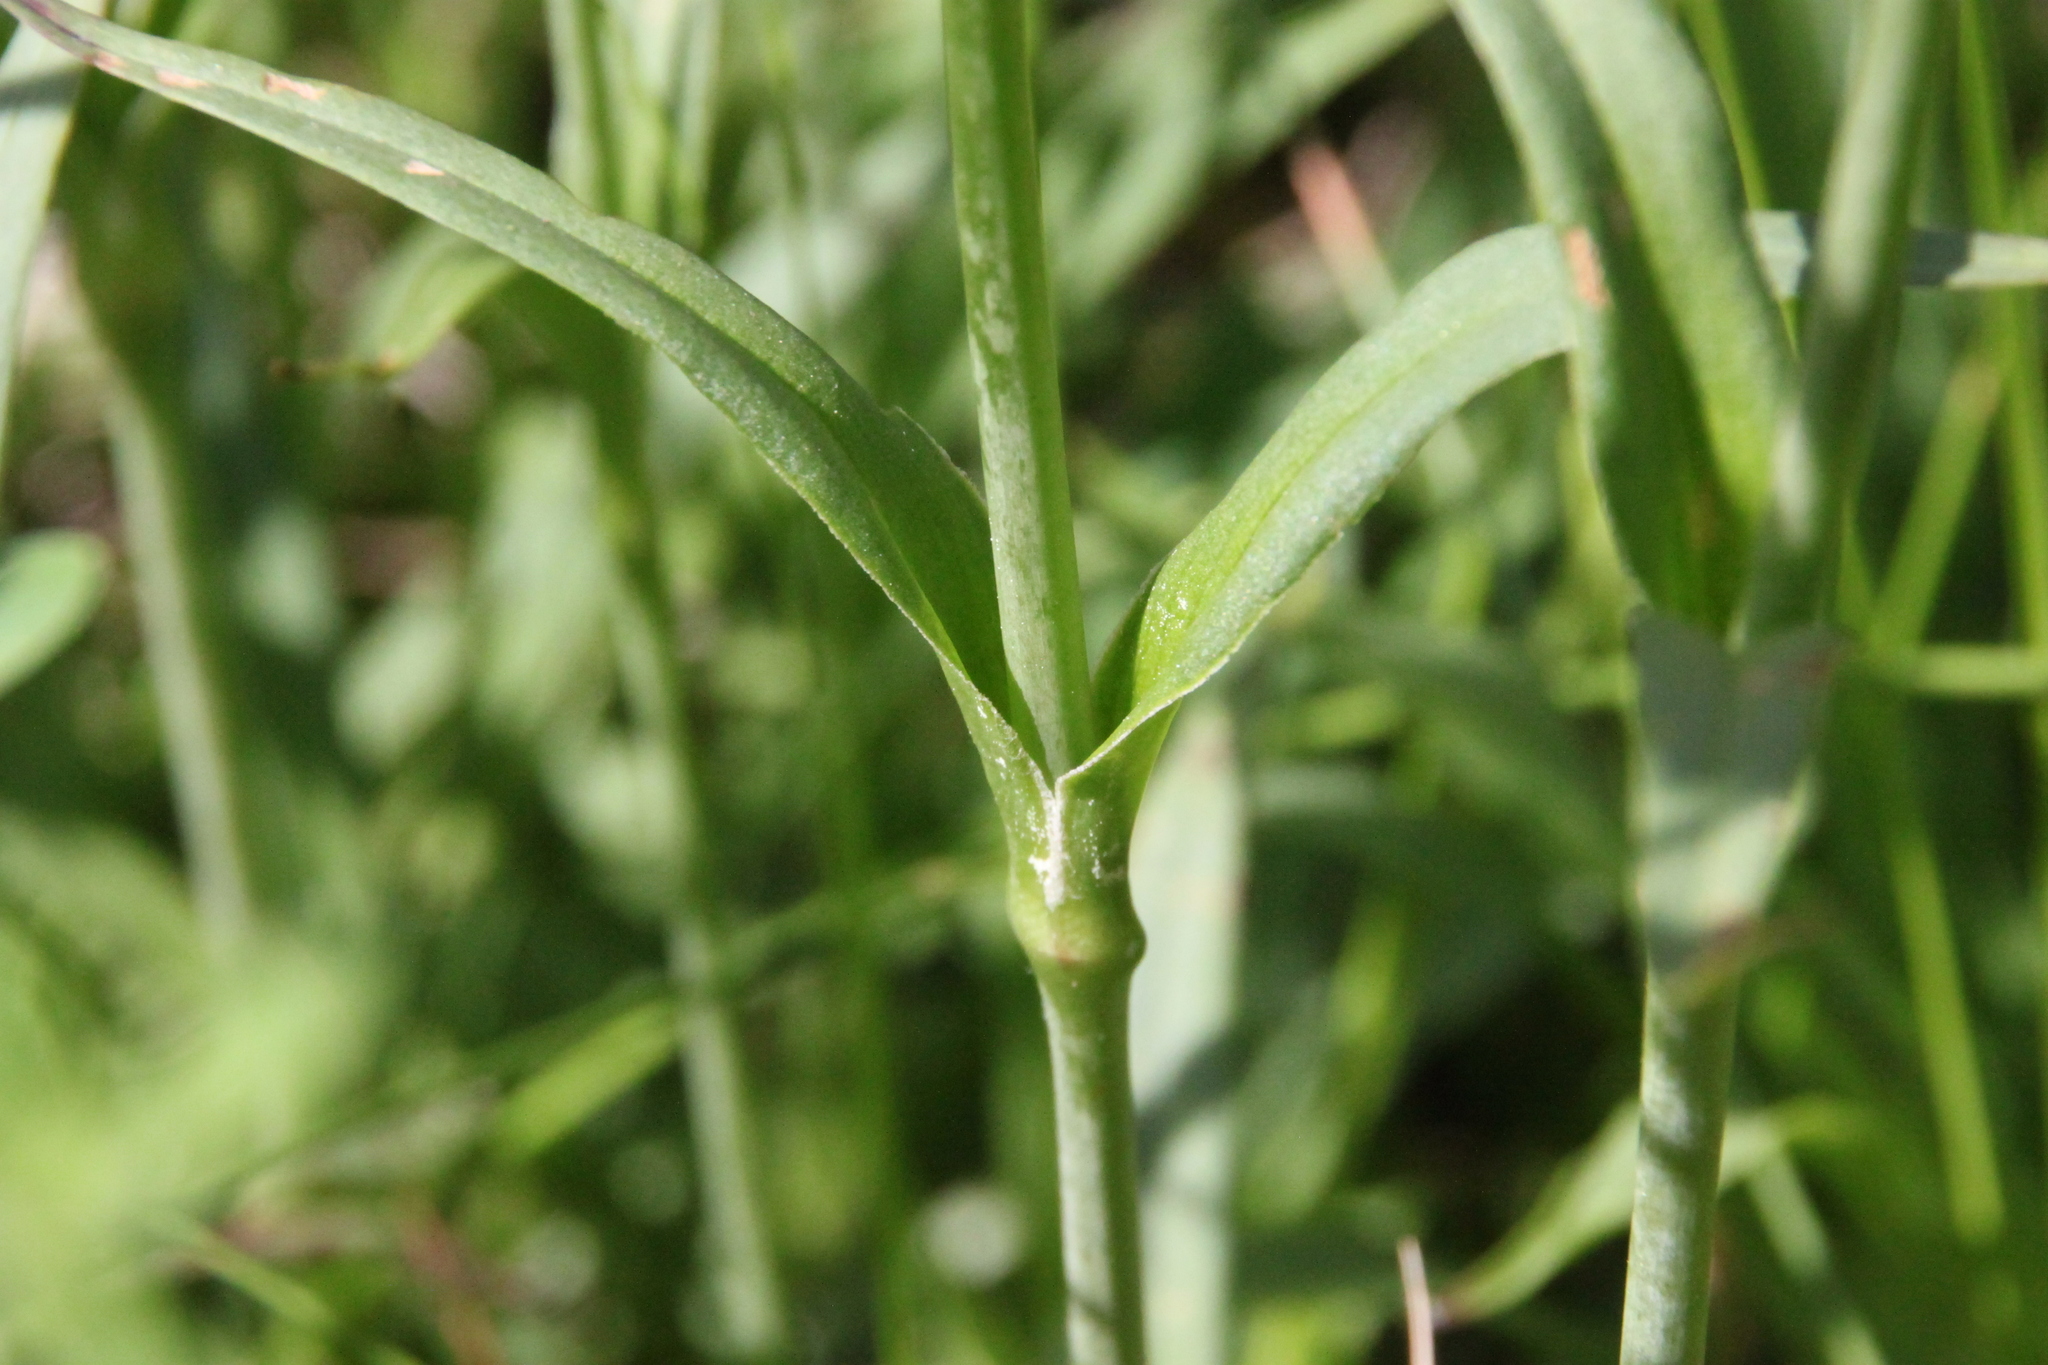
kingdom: Plantae
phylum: Tracheophyta
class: Magnoliopsida
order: Caryophyllales
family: Caryophyllaceae
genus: Viscaria
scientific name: Viscaria vulgaris
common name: Clammy campion
